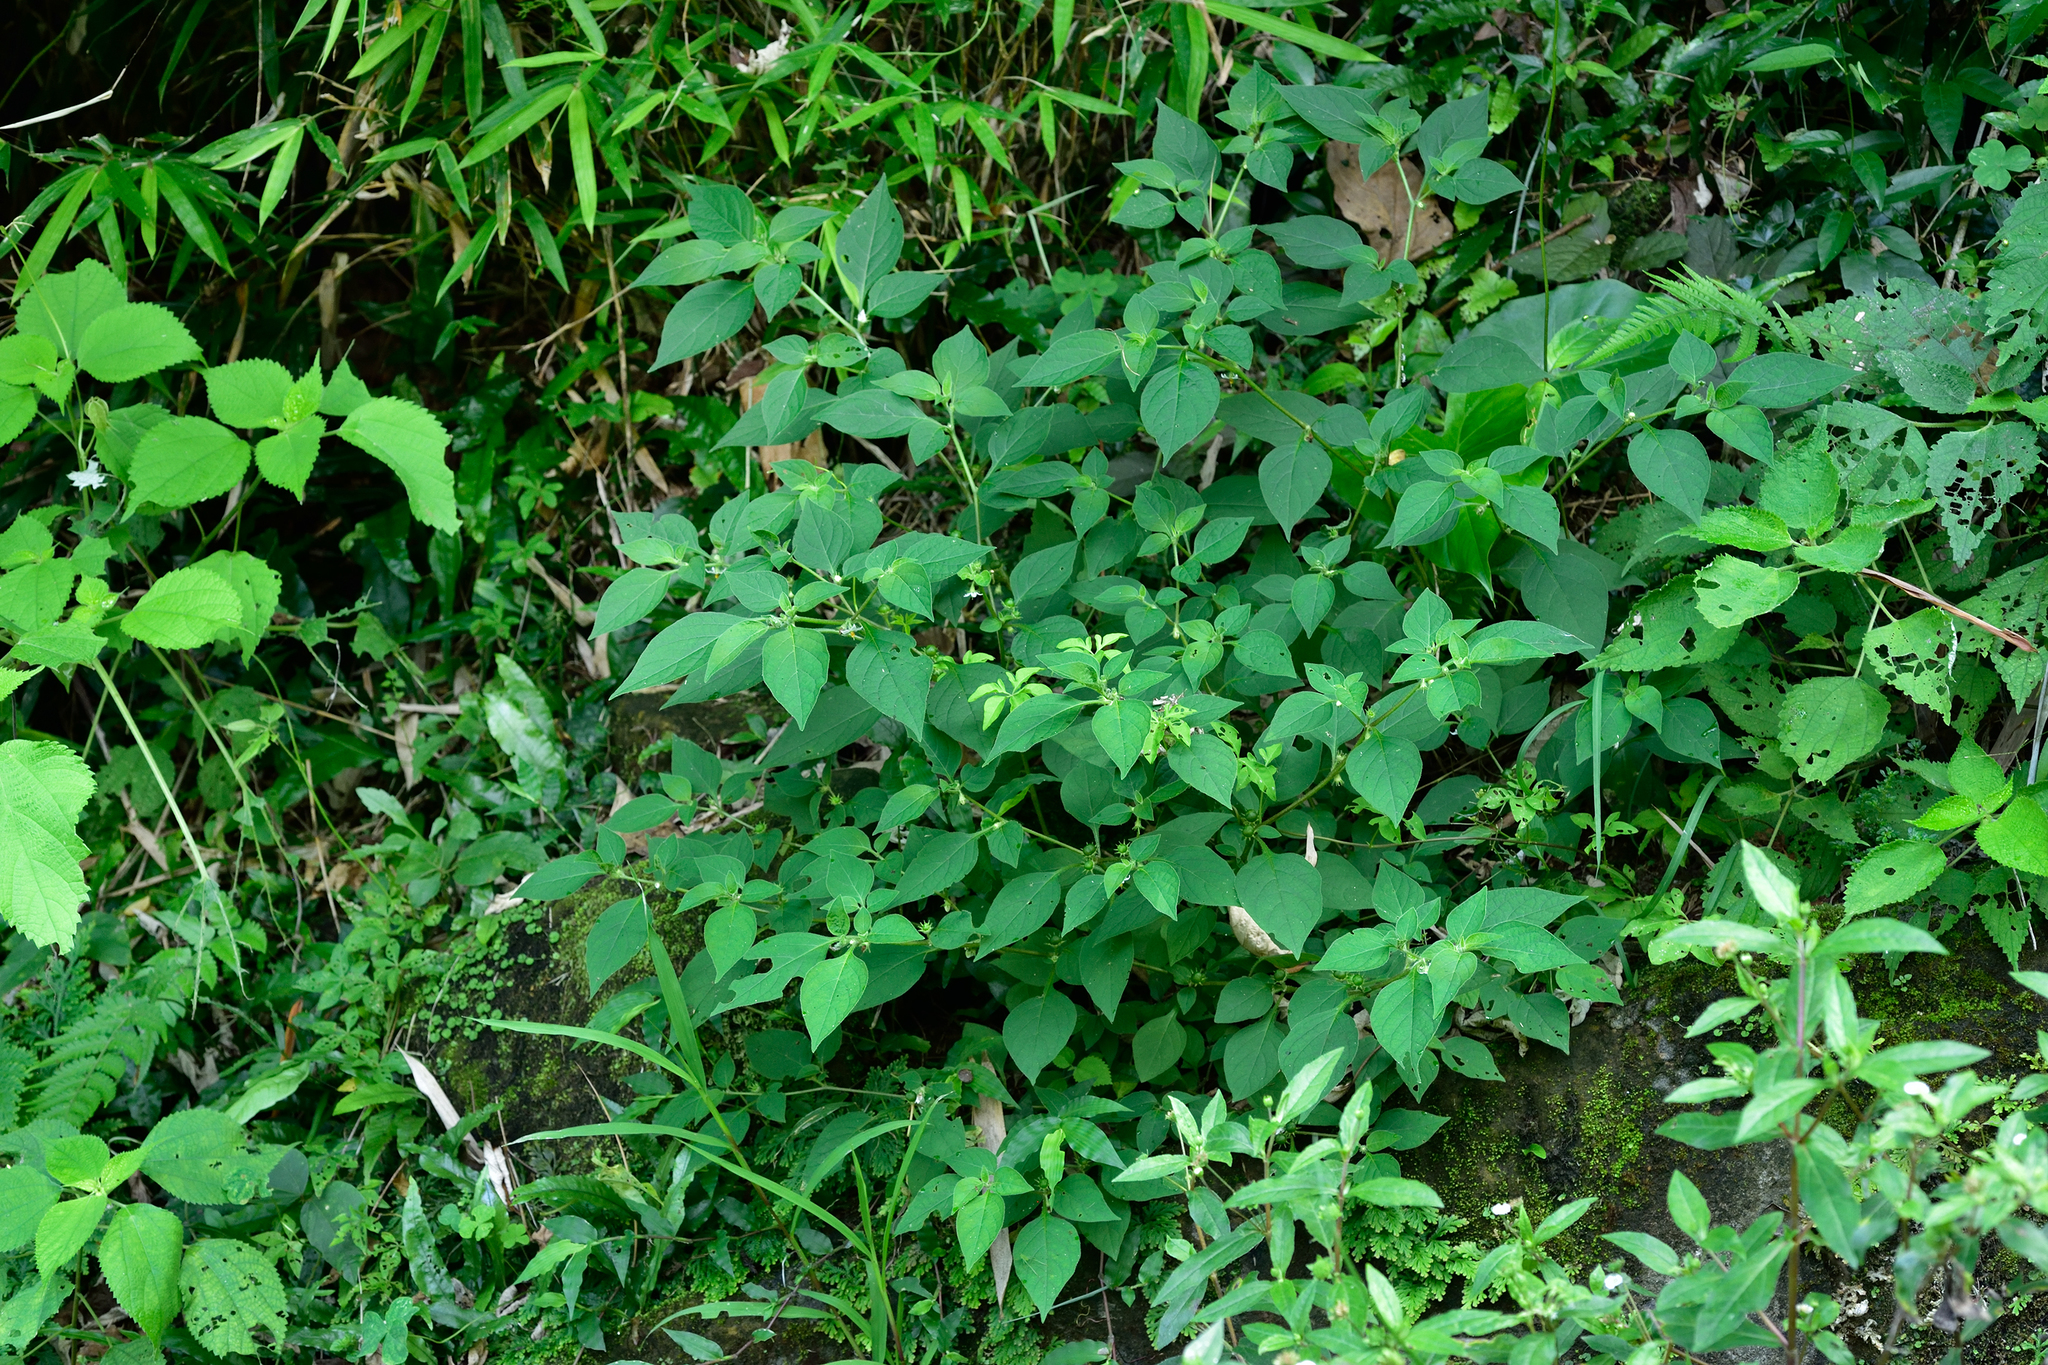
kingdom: Plantae
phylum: Tracheophyta
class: Magnoliopsida
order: Solanales
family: Solanaceae
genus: Lycianthes
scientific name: Lycianthes biflora
